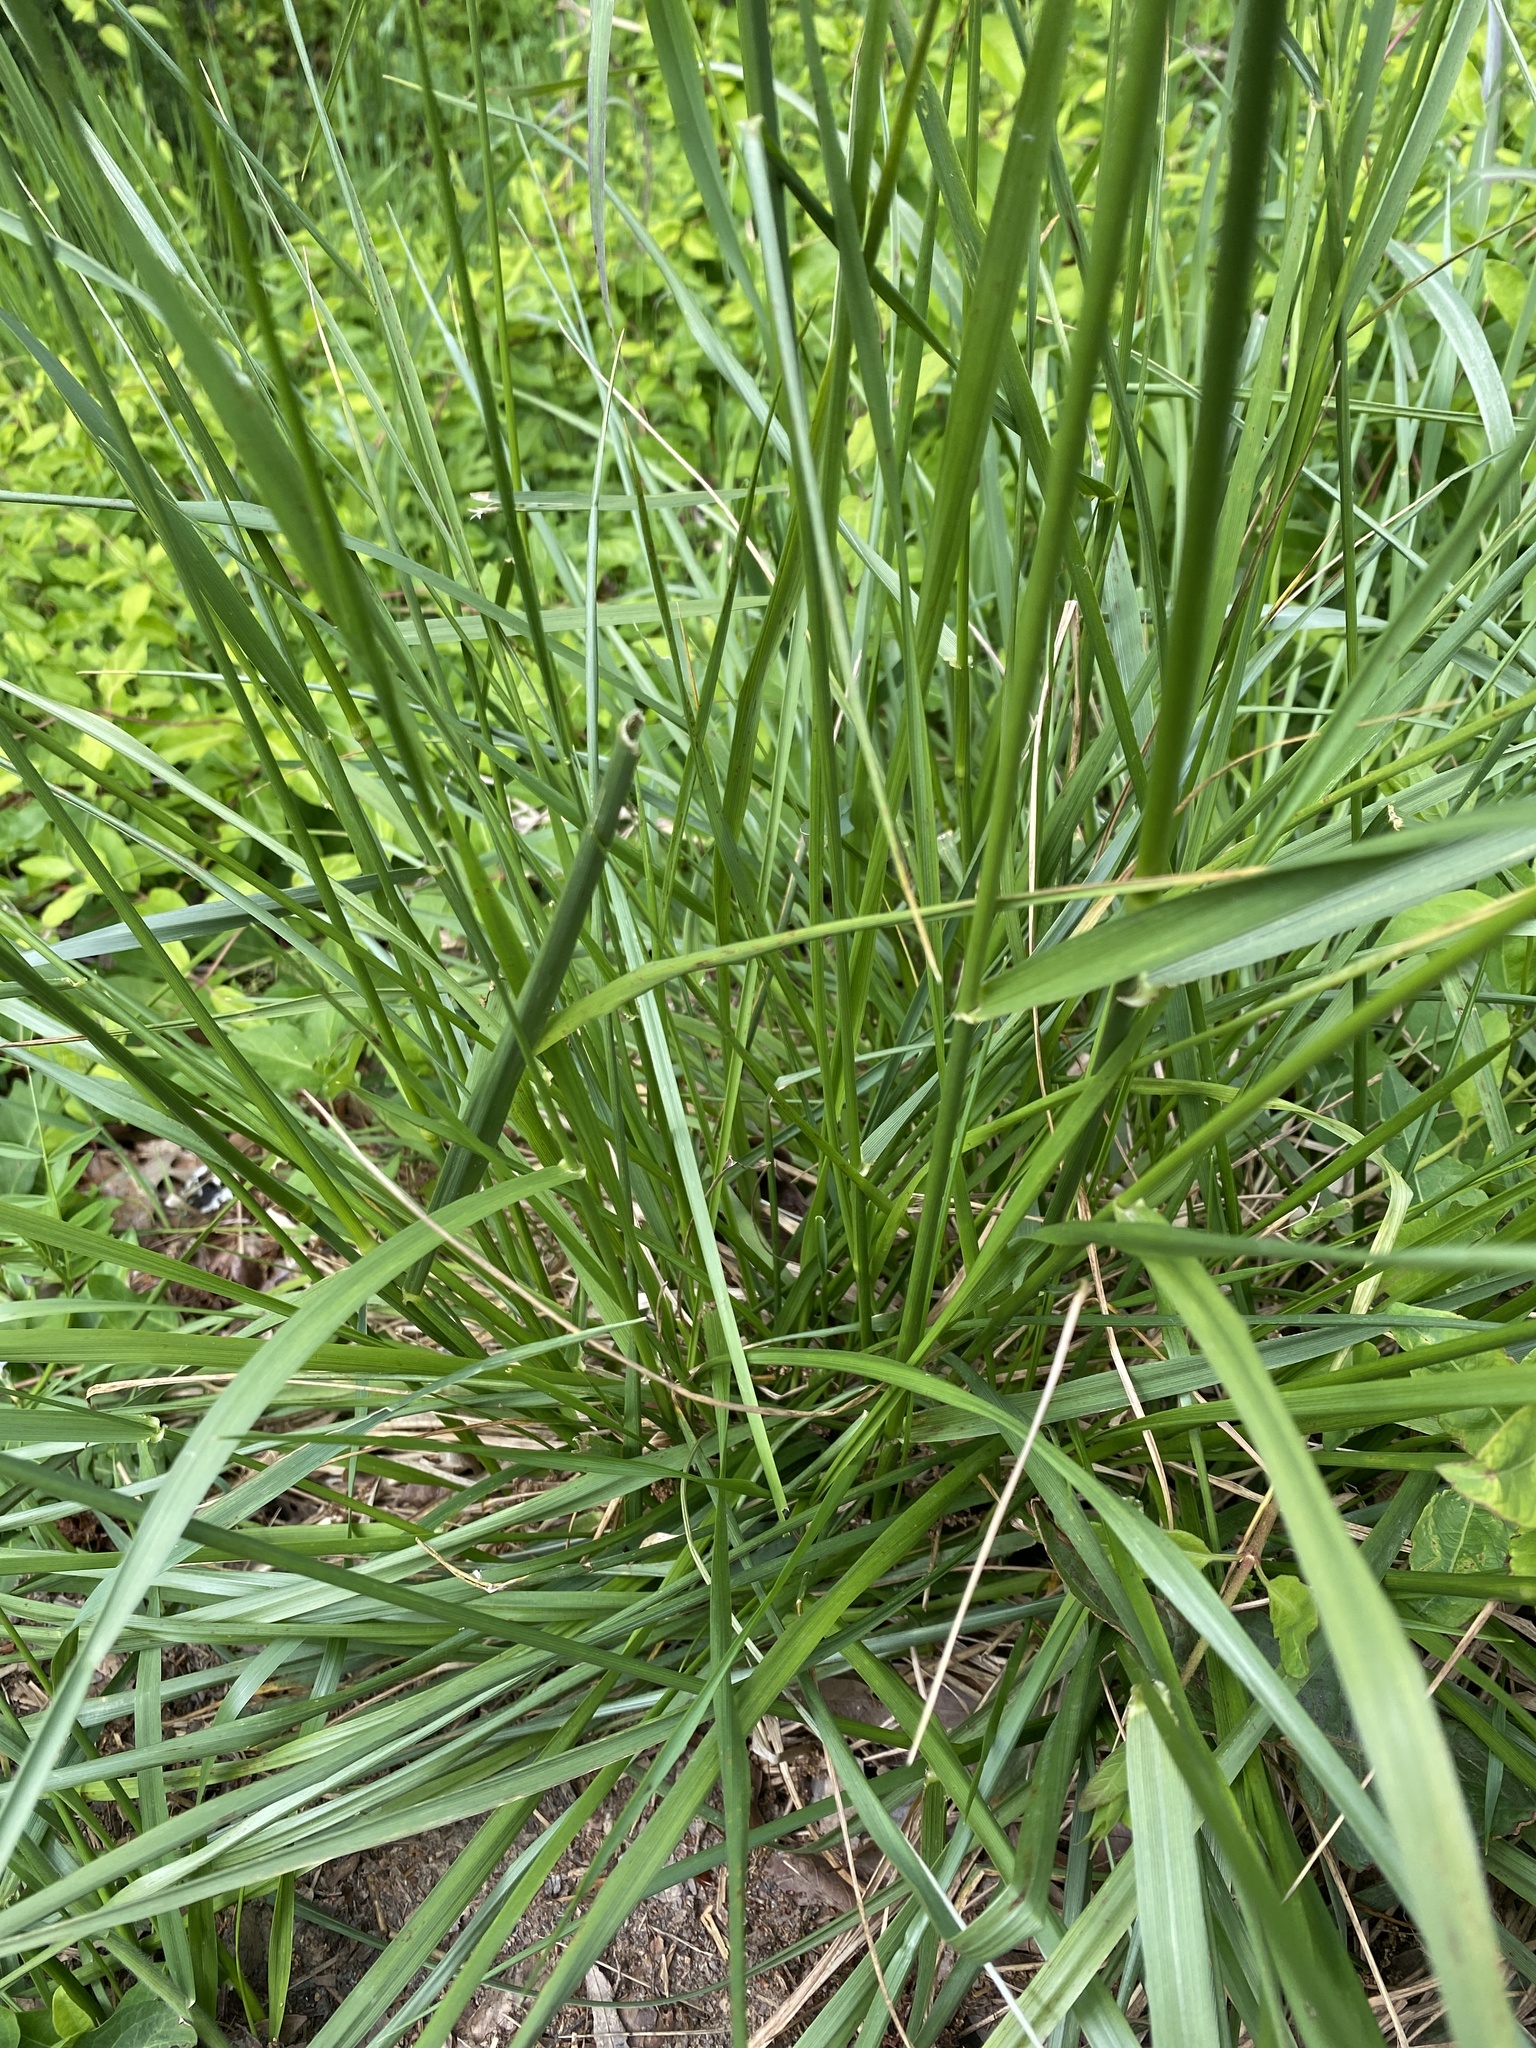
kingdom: Plantae
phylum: Tracheophyta
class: Liliopsida
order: Poales
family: Poaceae
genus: Lolium
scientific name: Lolium arundinaceum
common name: Reed fescue
